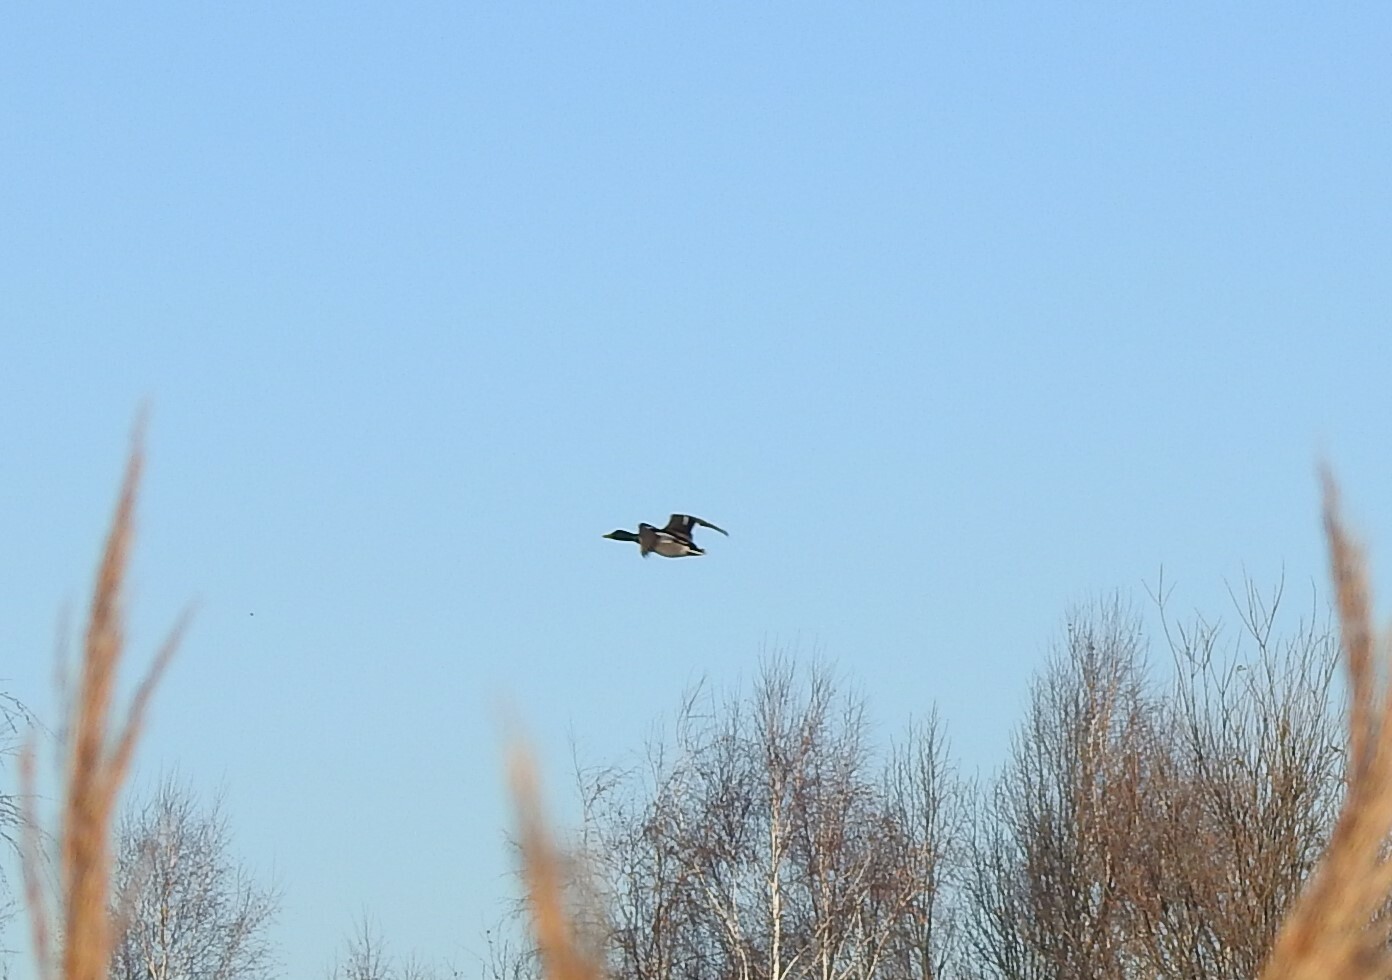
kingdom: Animalia
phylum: Chordata
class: Aves
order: Anseriformes
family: Anatidae
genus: Anas
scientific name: Anas platyrhynchos
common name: Mallard
